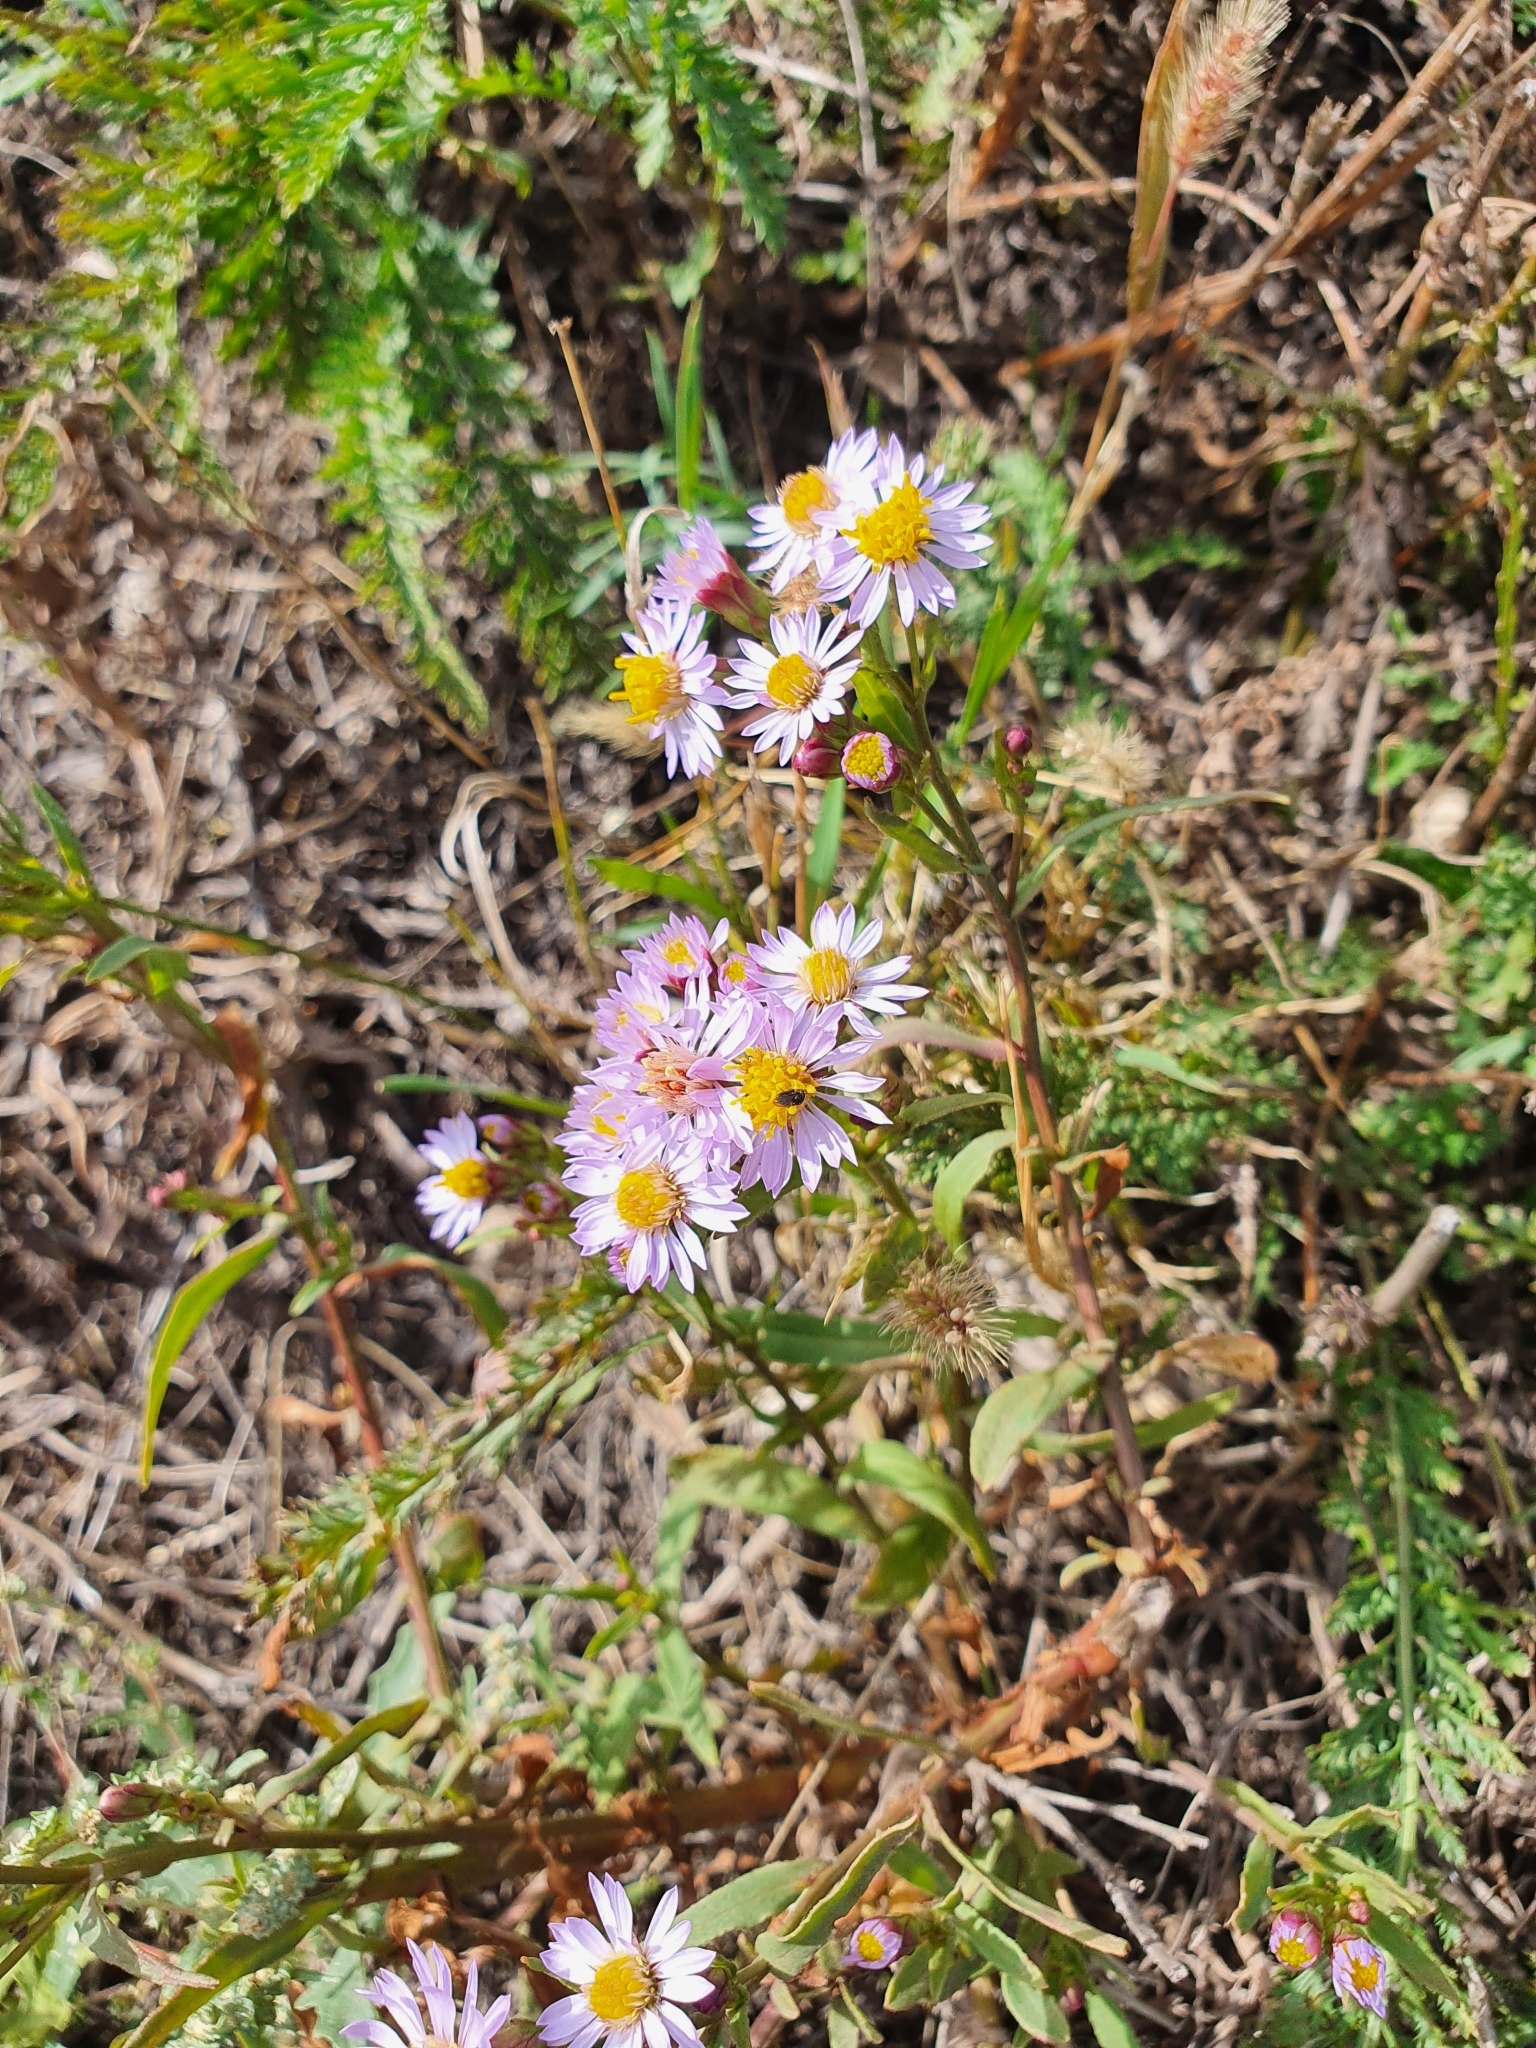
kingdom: Plantae
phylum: Tracheophyta
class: Magnoliopsida
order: Asterales
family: Asteraceae
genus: Tripolium
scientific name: Tripolium pannonicum
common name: Sea aster
